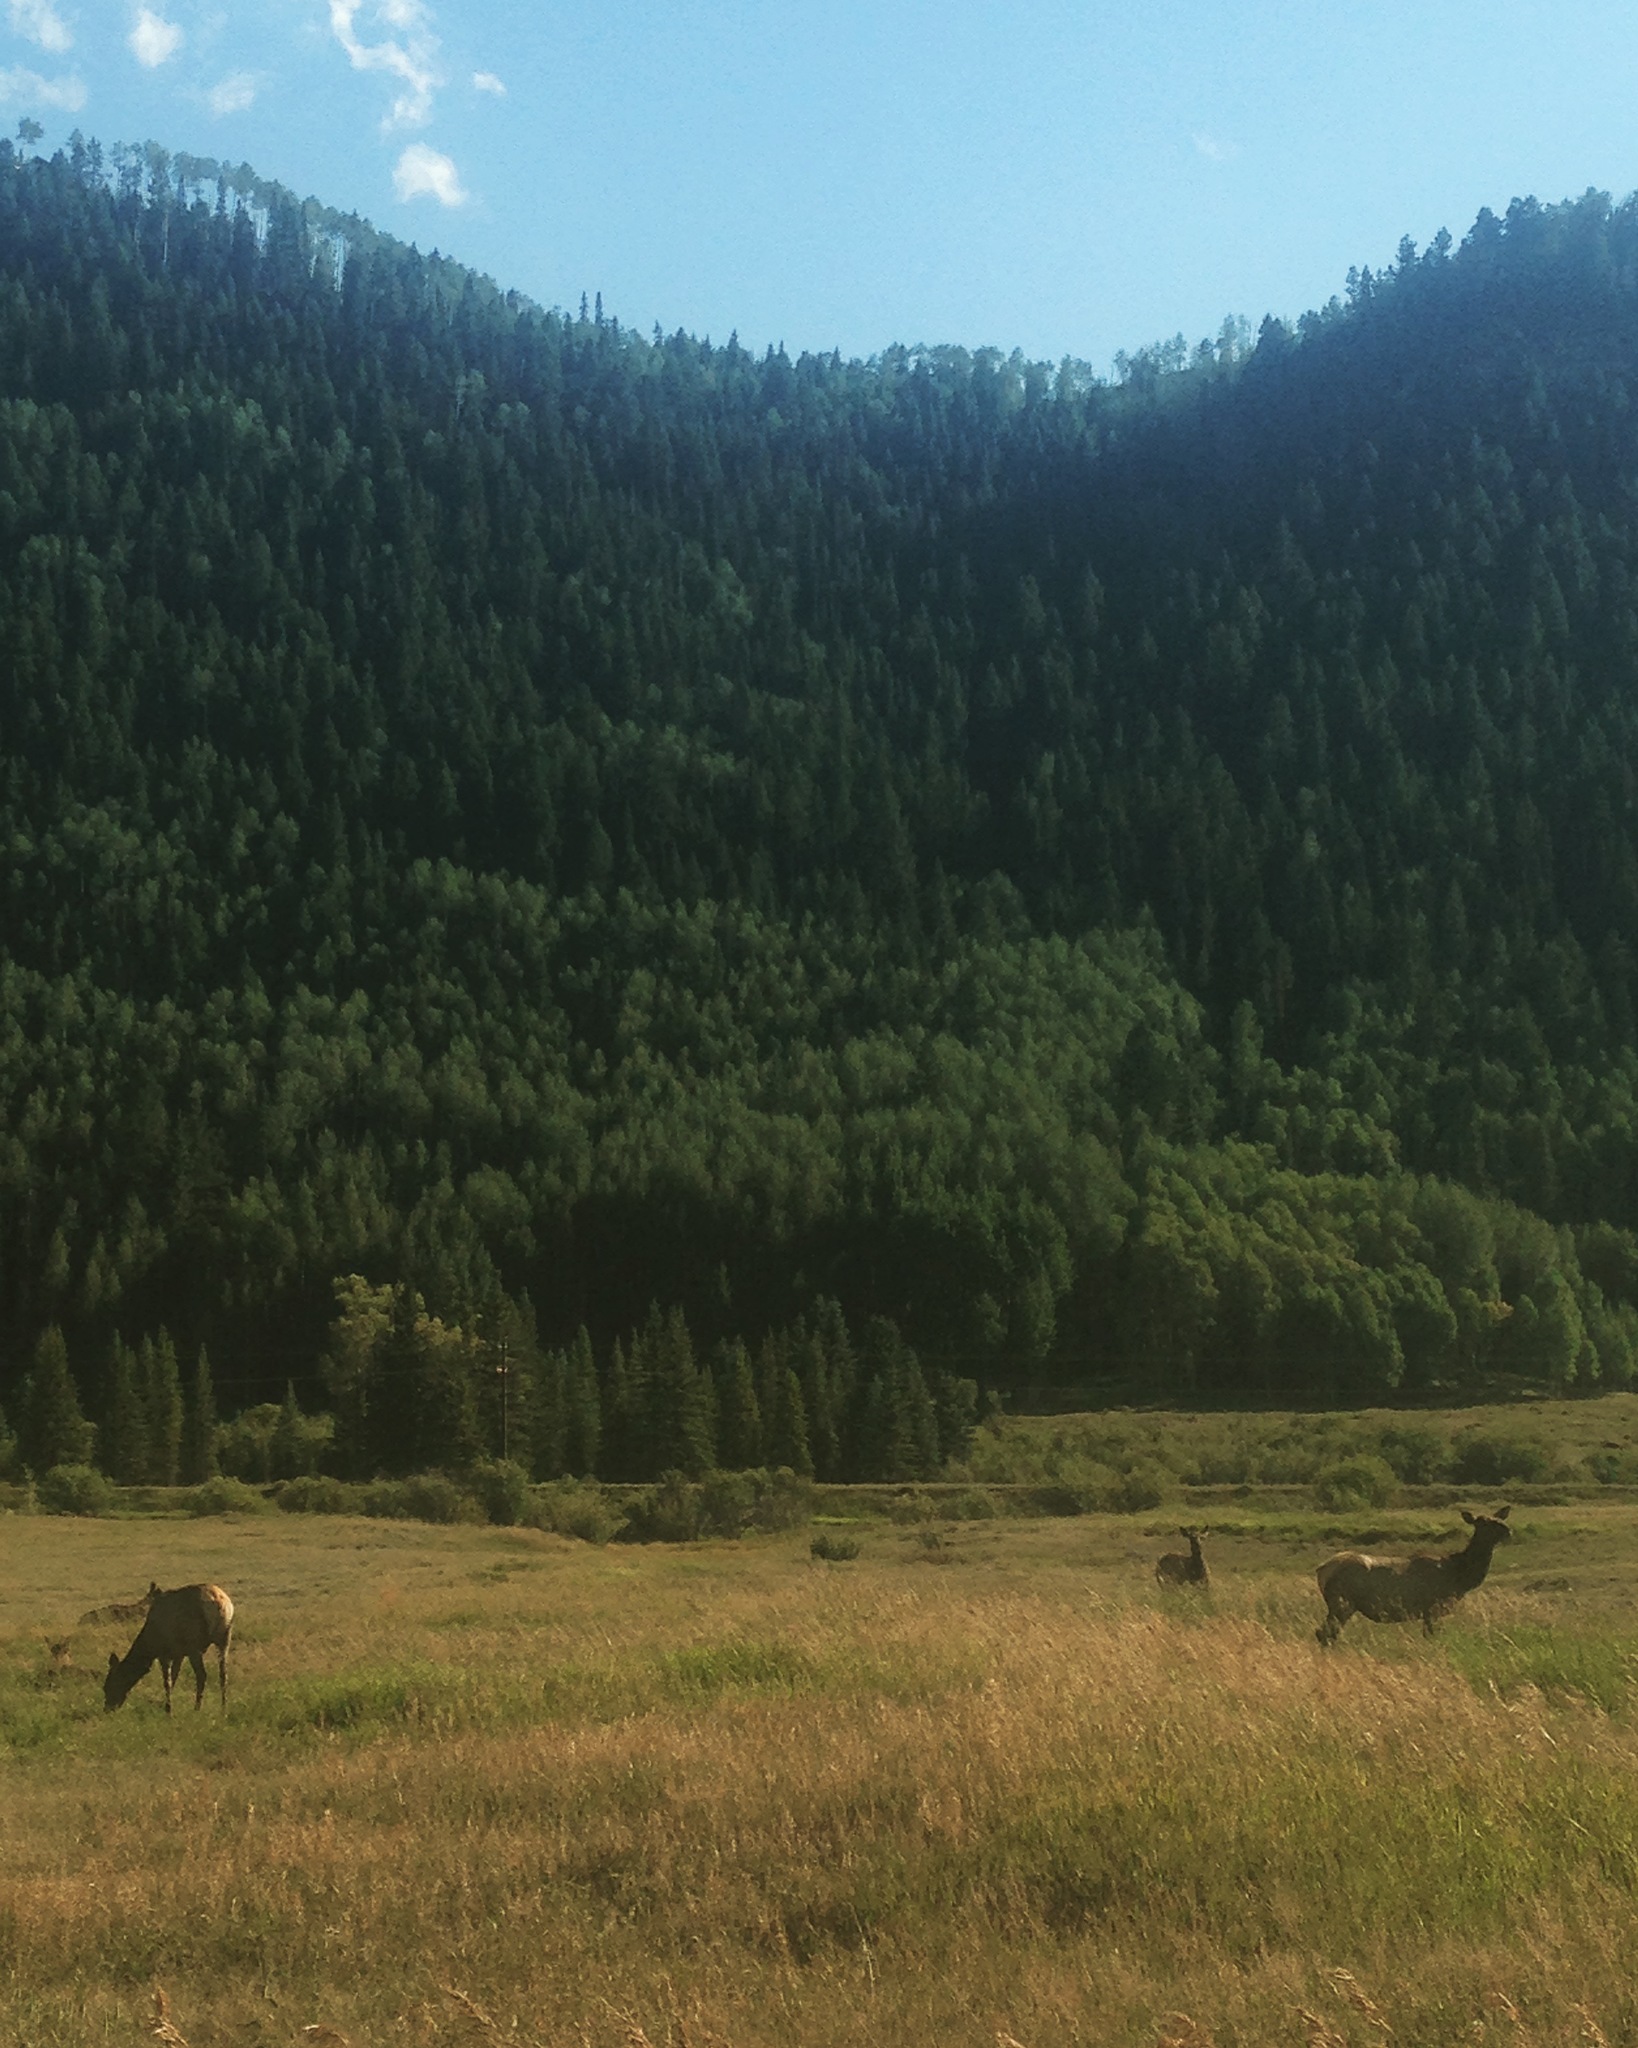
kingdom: Animalia
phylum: Chordata
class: Mammalia
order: Artiodactyla
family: Cervidae
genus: Cervus
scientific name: Cervus elaphus
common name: Red deer
